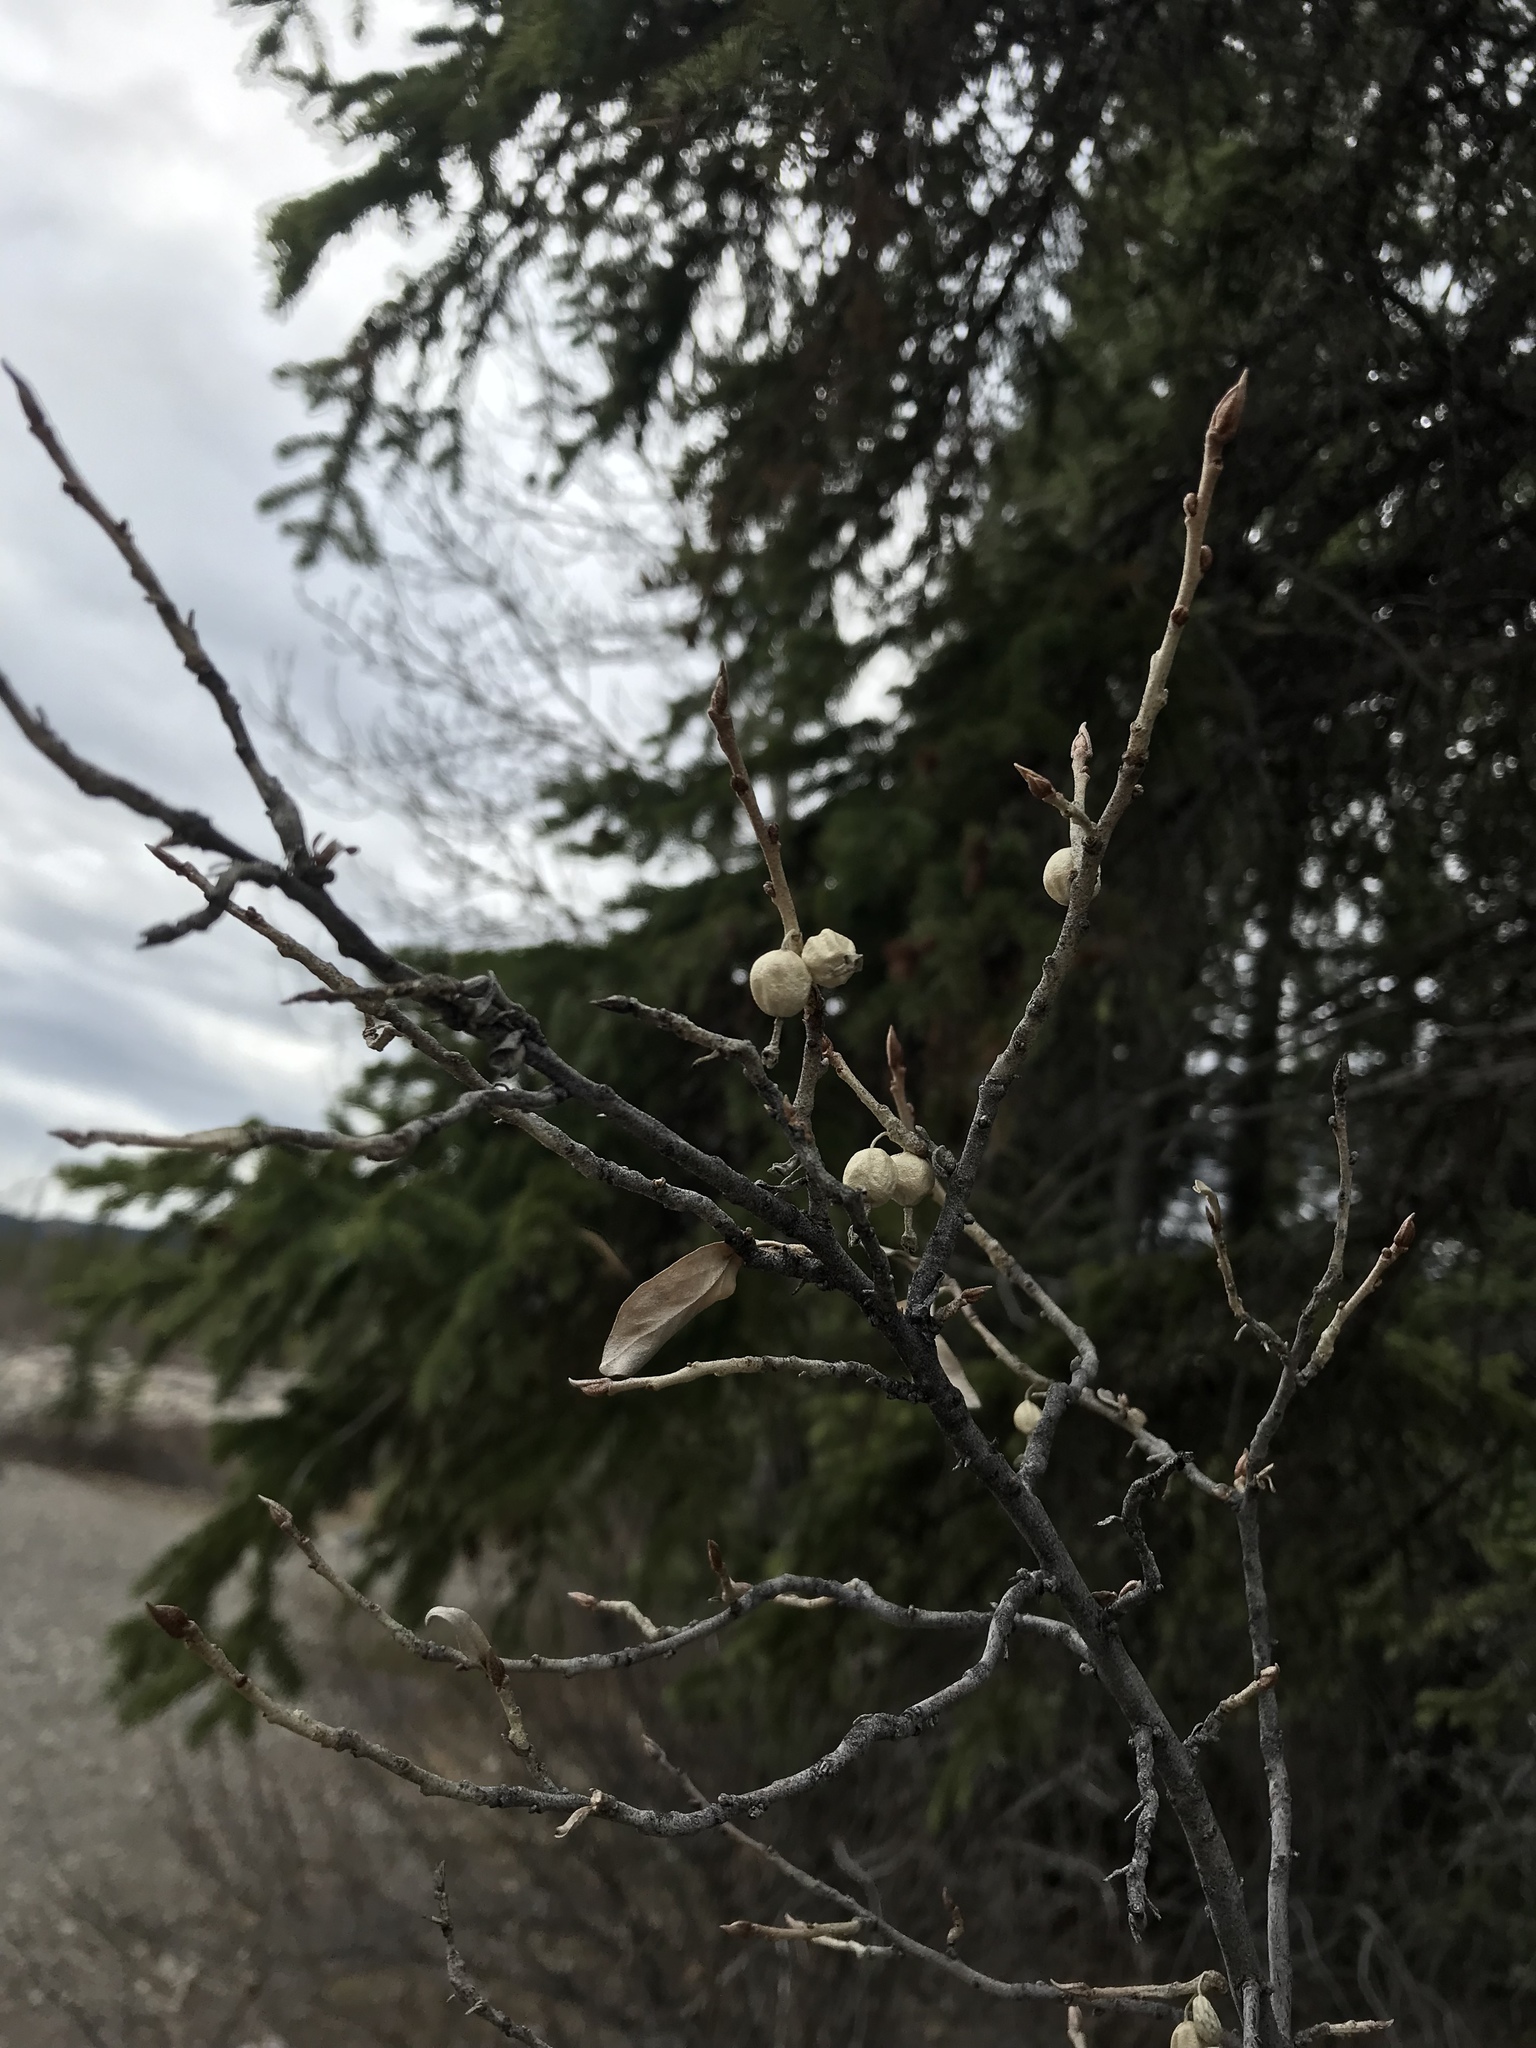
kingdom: Plantae
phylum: Tracheophyta
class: Magnoliopsida
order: Rosales
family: Elaeagnaceae
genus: Elaeagnus
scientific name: Elaeagnus commutata
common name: Silverberry
